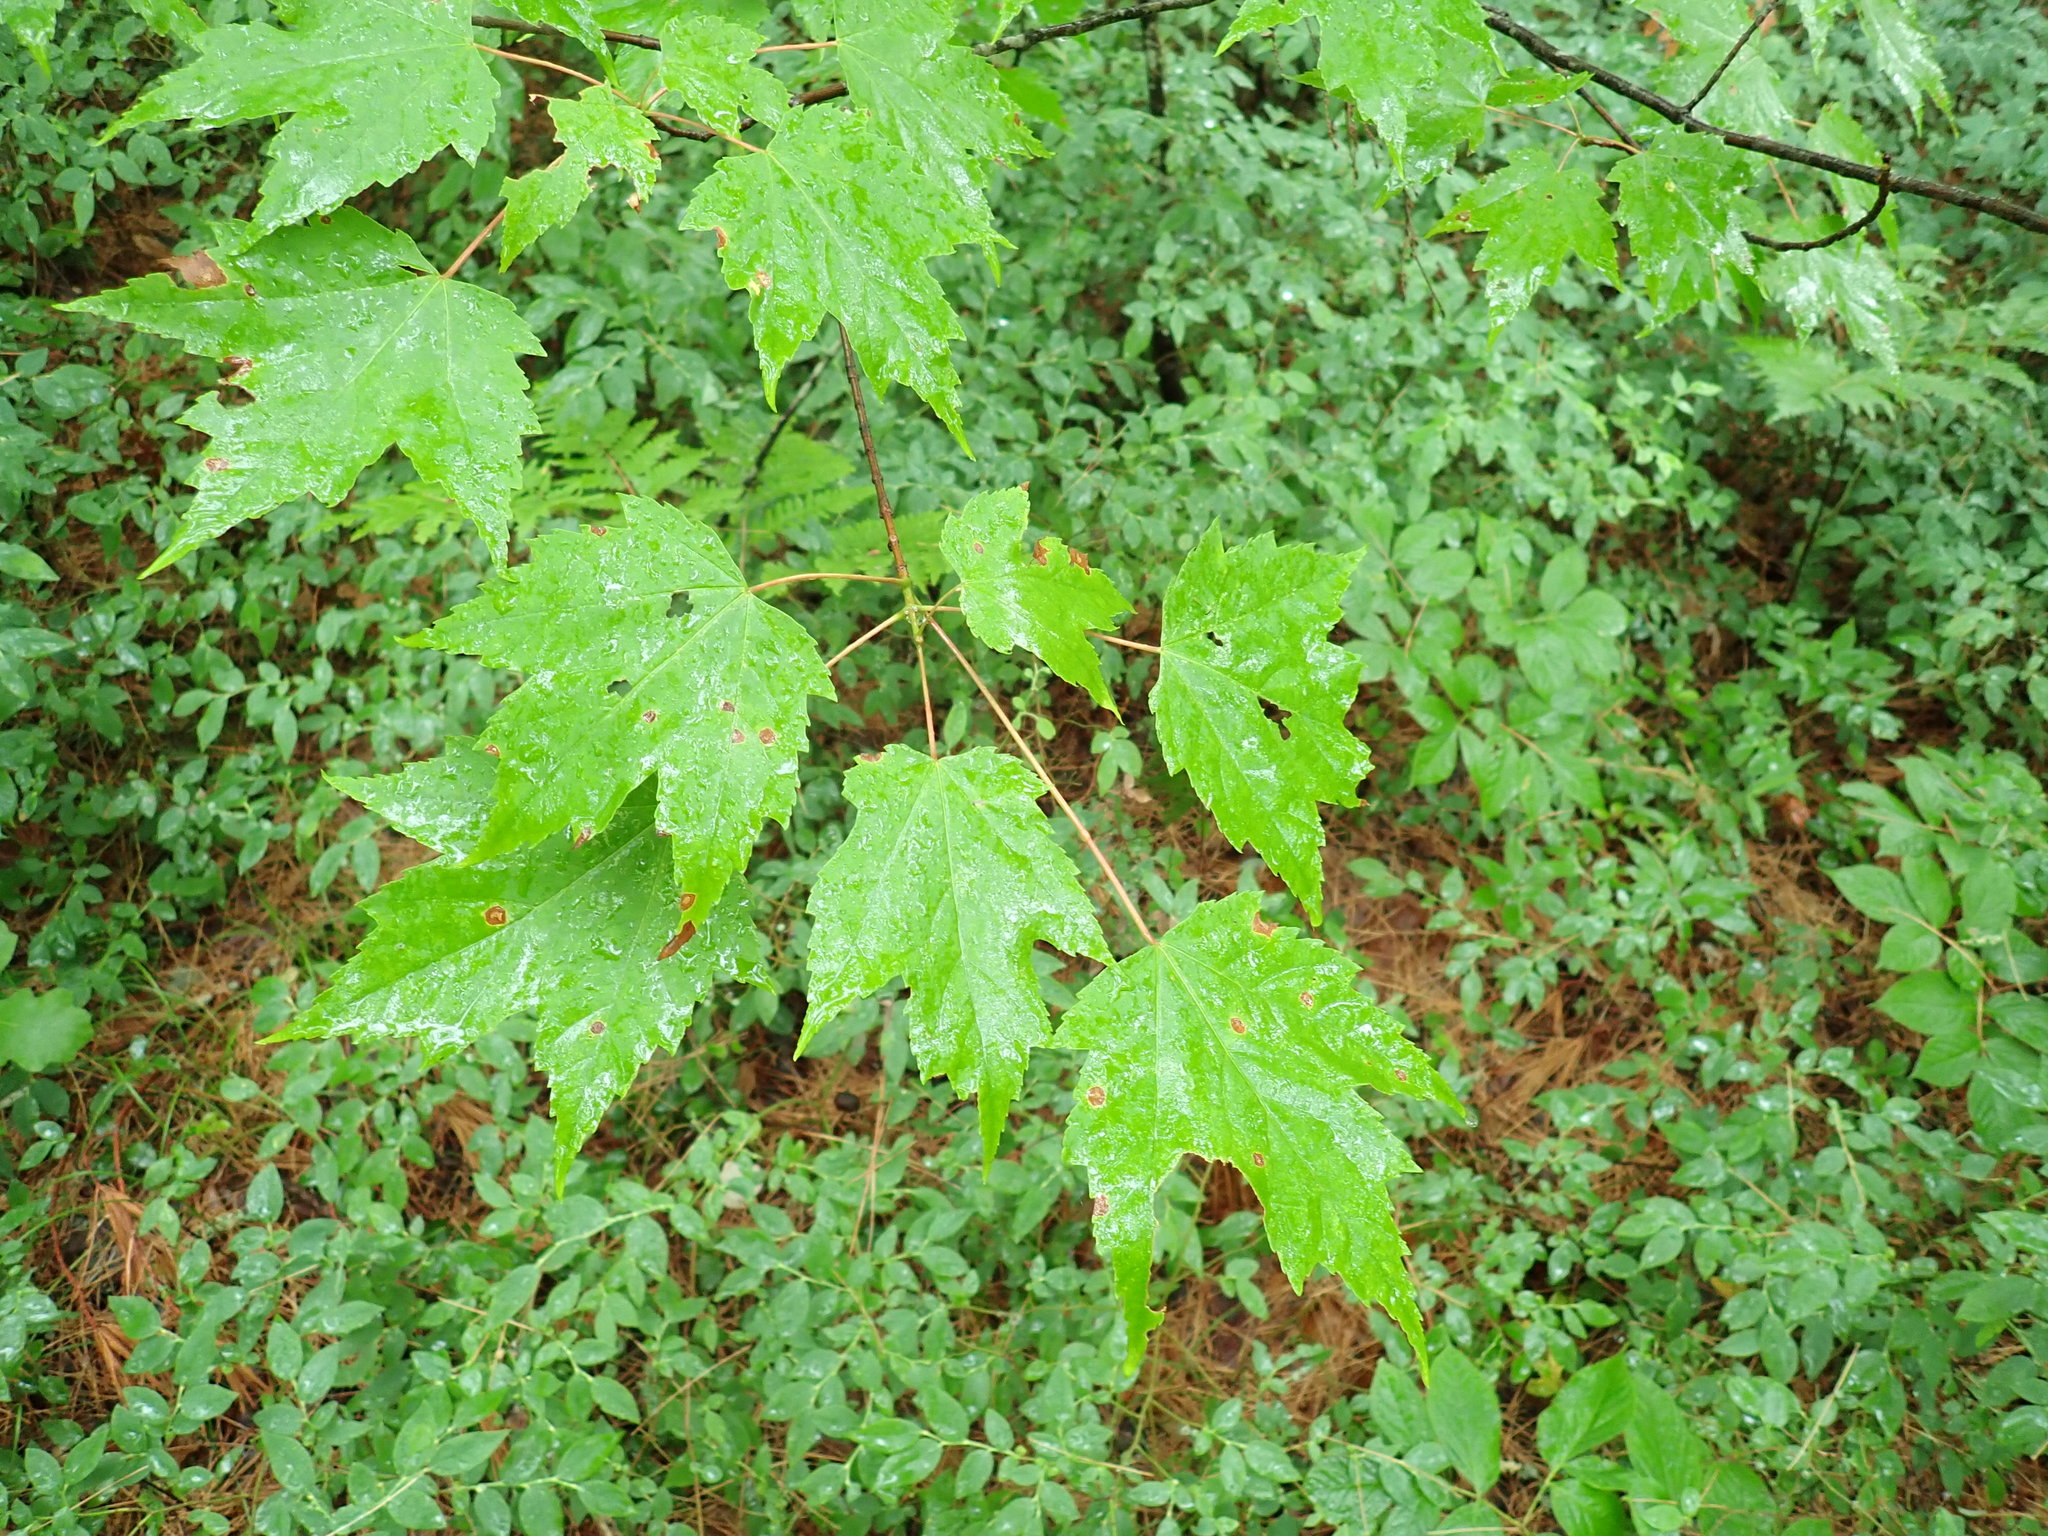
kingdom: Plantae
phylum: Tracheophyta
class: Magnoliopsida
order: Sapindales
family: Sapindaceae
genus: Acer
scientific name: Acer rubrum
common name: Red maple
